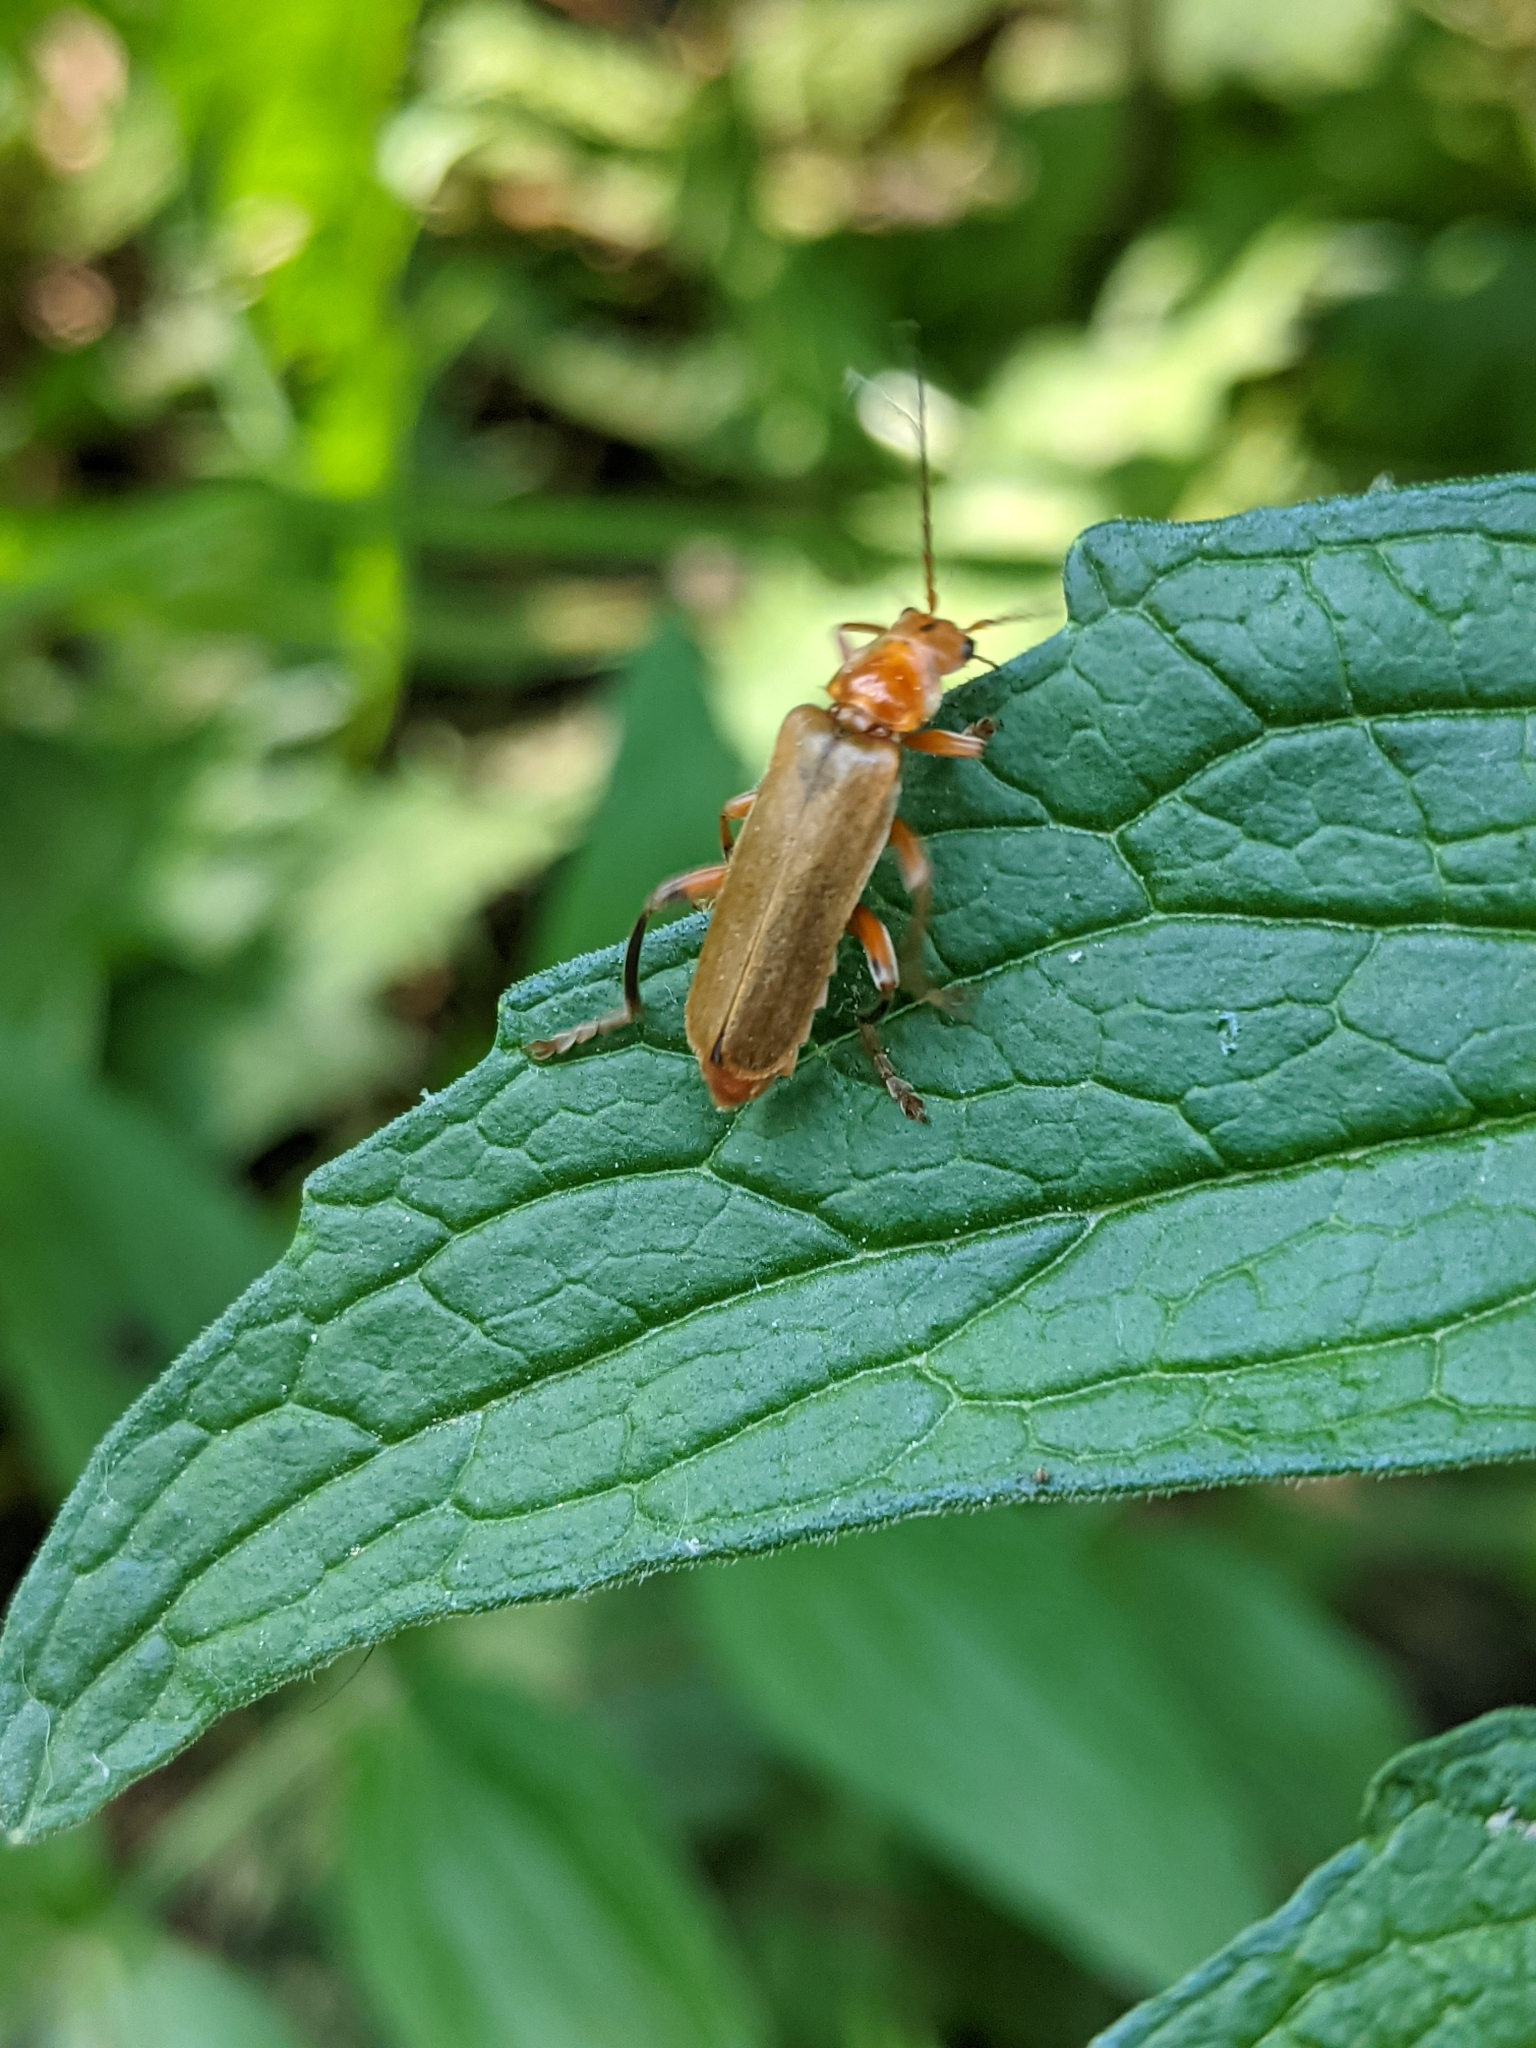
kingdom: Animalia
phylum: Arthropoda
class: Insecta
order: Coleoptera
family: Cantharidae
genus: Cantharis
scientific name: Cantharis livida
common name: Livid soldier beetle
